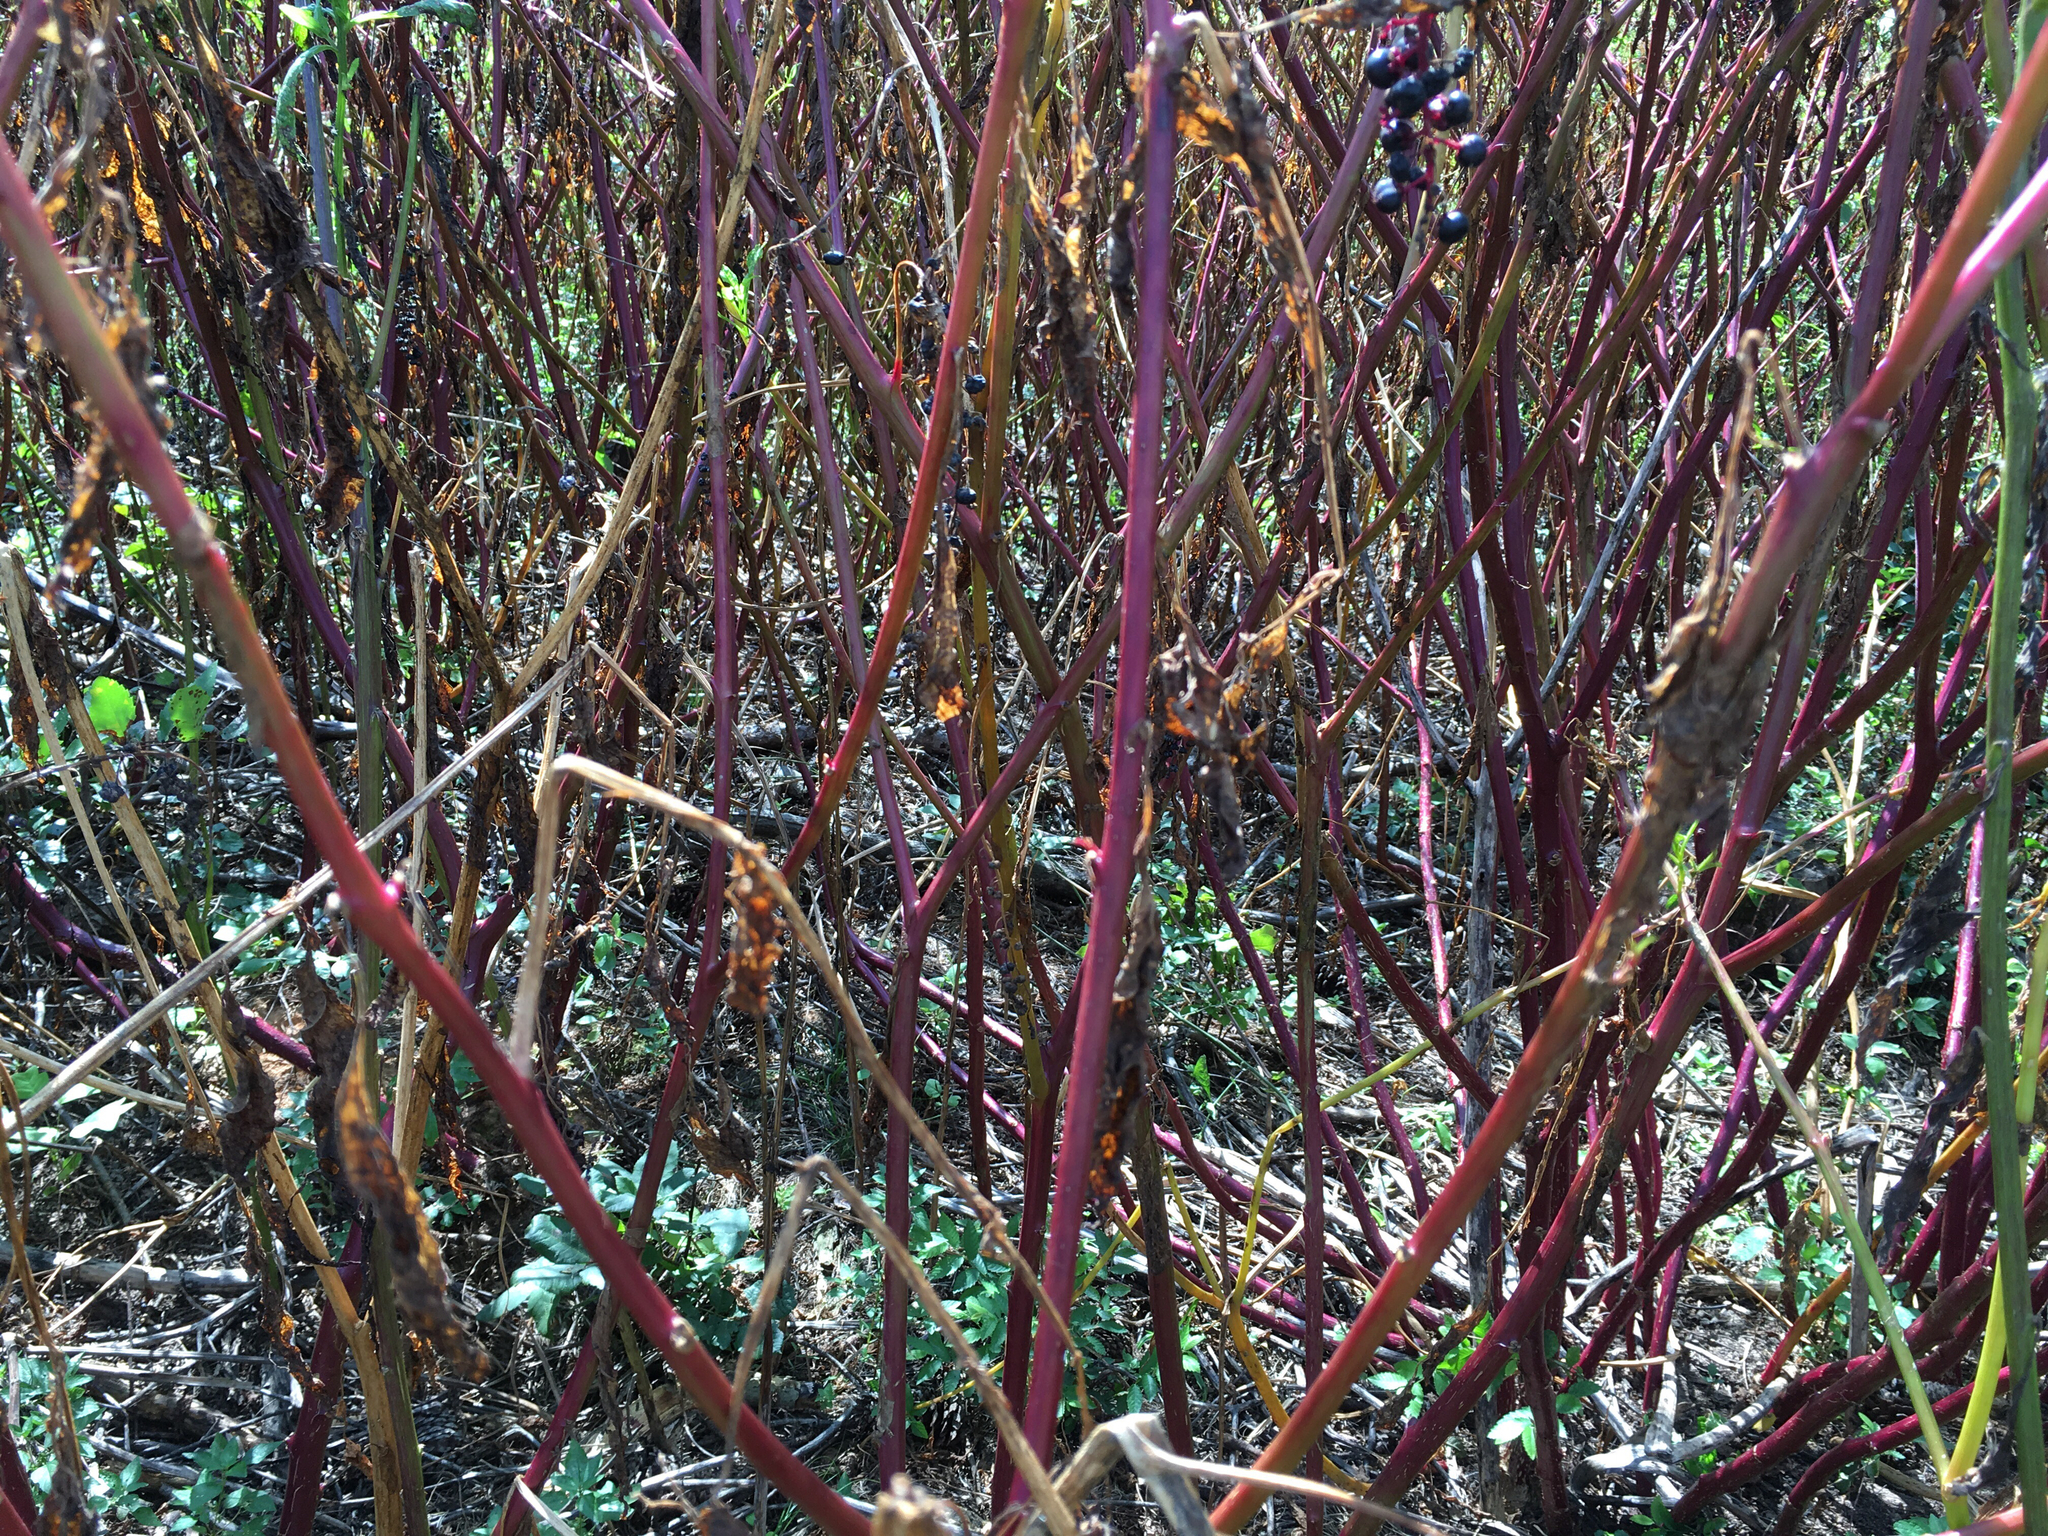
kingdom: Plantae
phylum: Tracheophyta
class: Magnoliopsida
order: Caryophyllales
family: Phytolaccaceae
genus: Phytolacca
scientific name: Phytolacca americana
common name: American pokeweed
